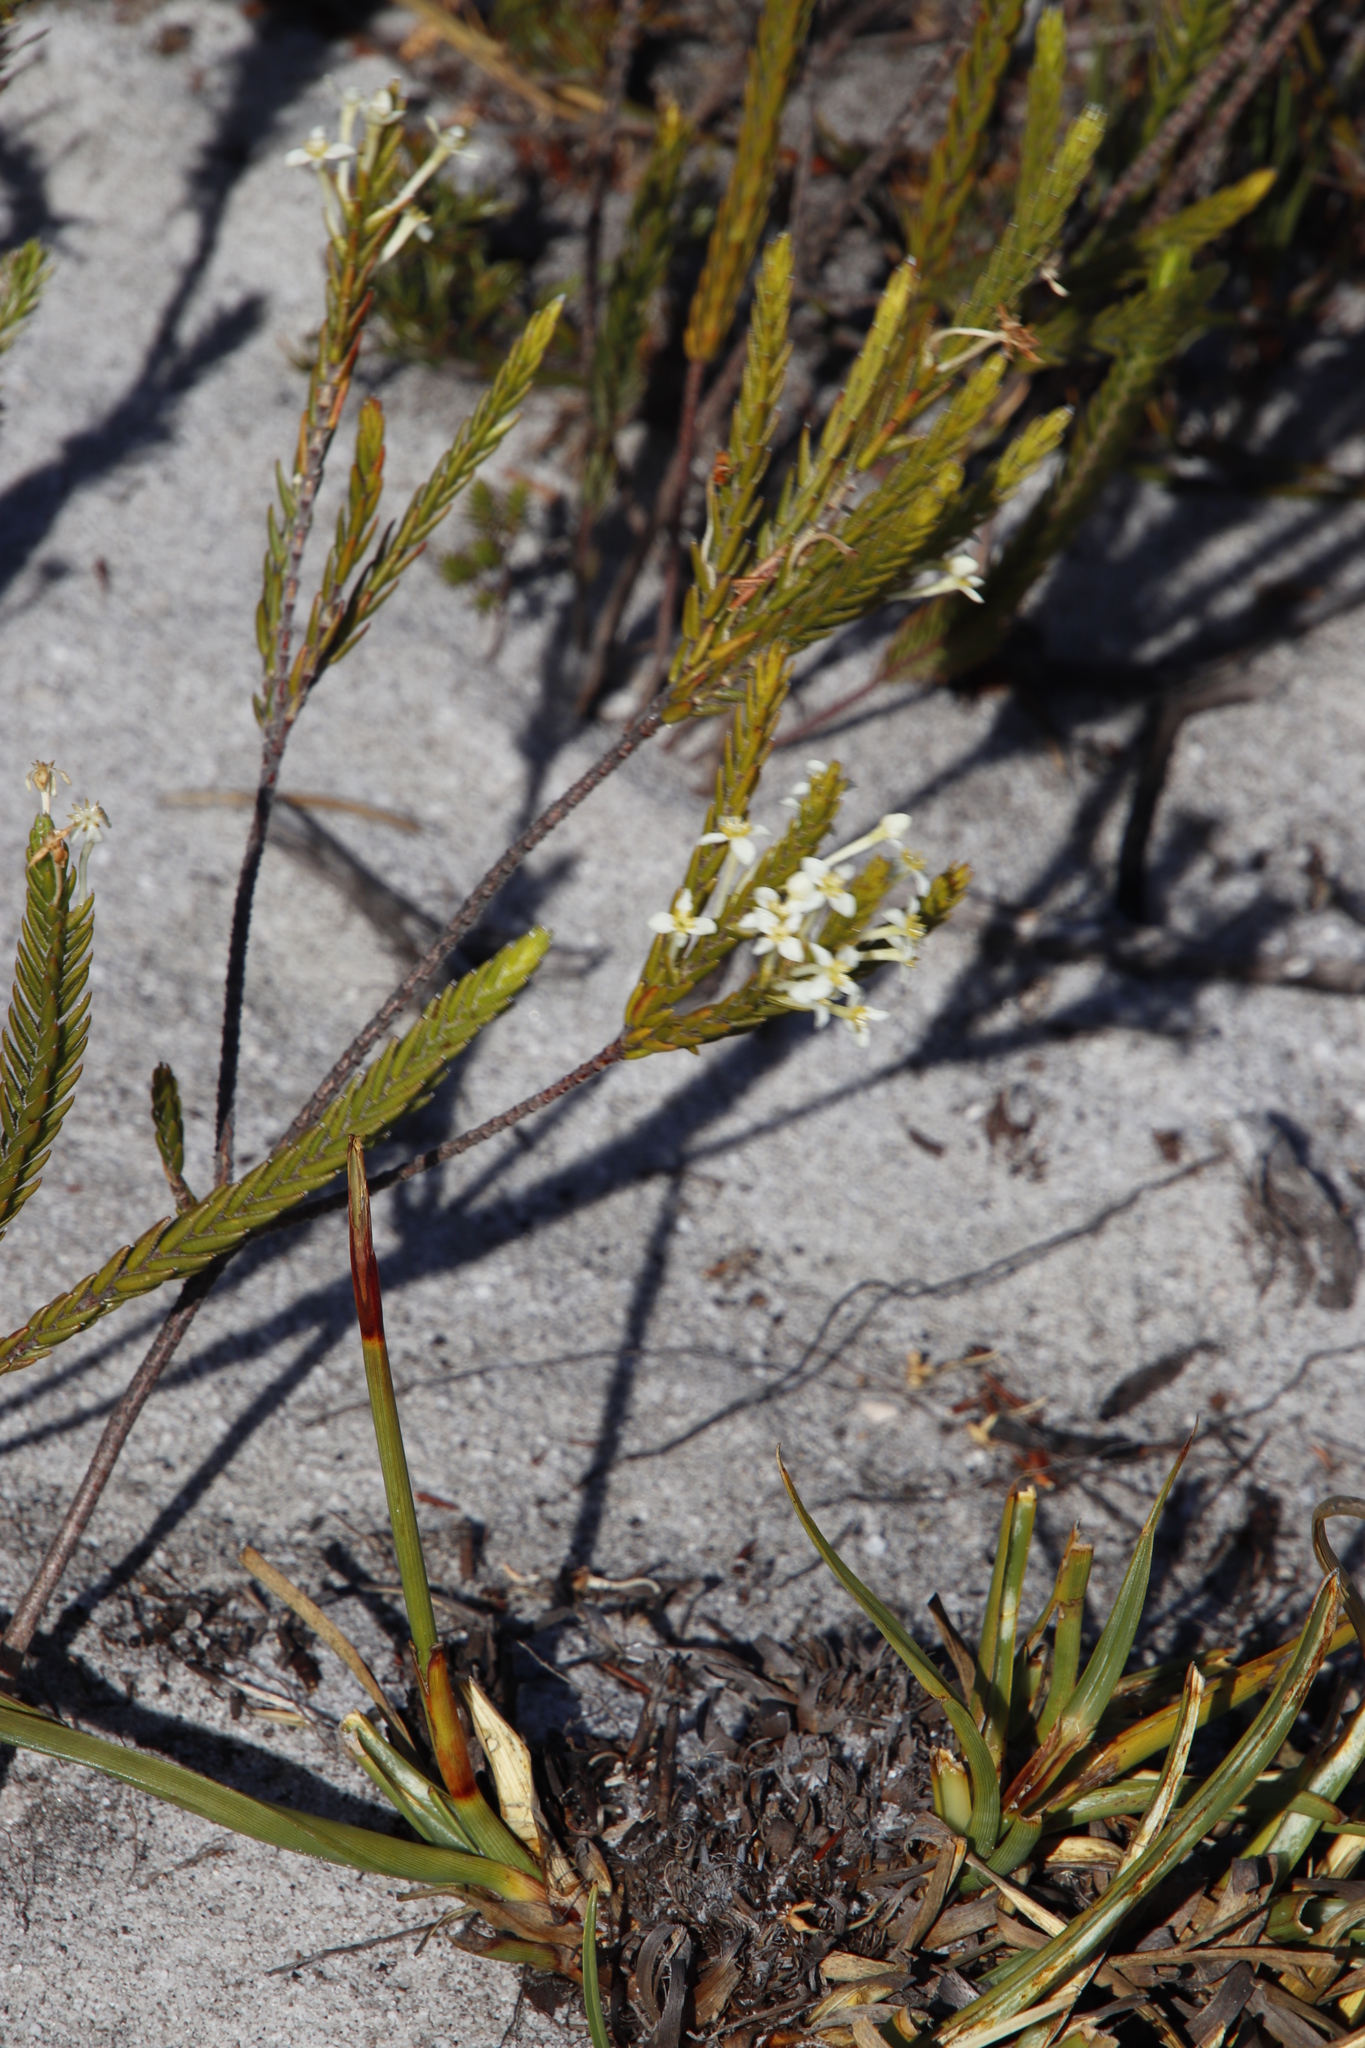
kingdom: Plantae
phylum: Tracheophyta
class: Magnoliopsida
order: Malvales
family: Thymelaeaceae
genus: Struthiola
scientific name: Struthiola ciliata
